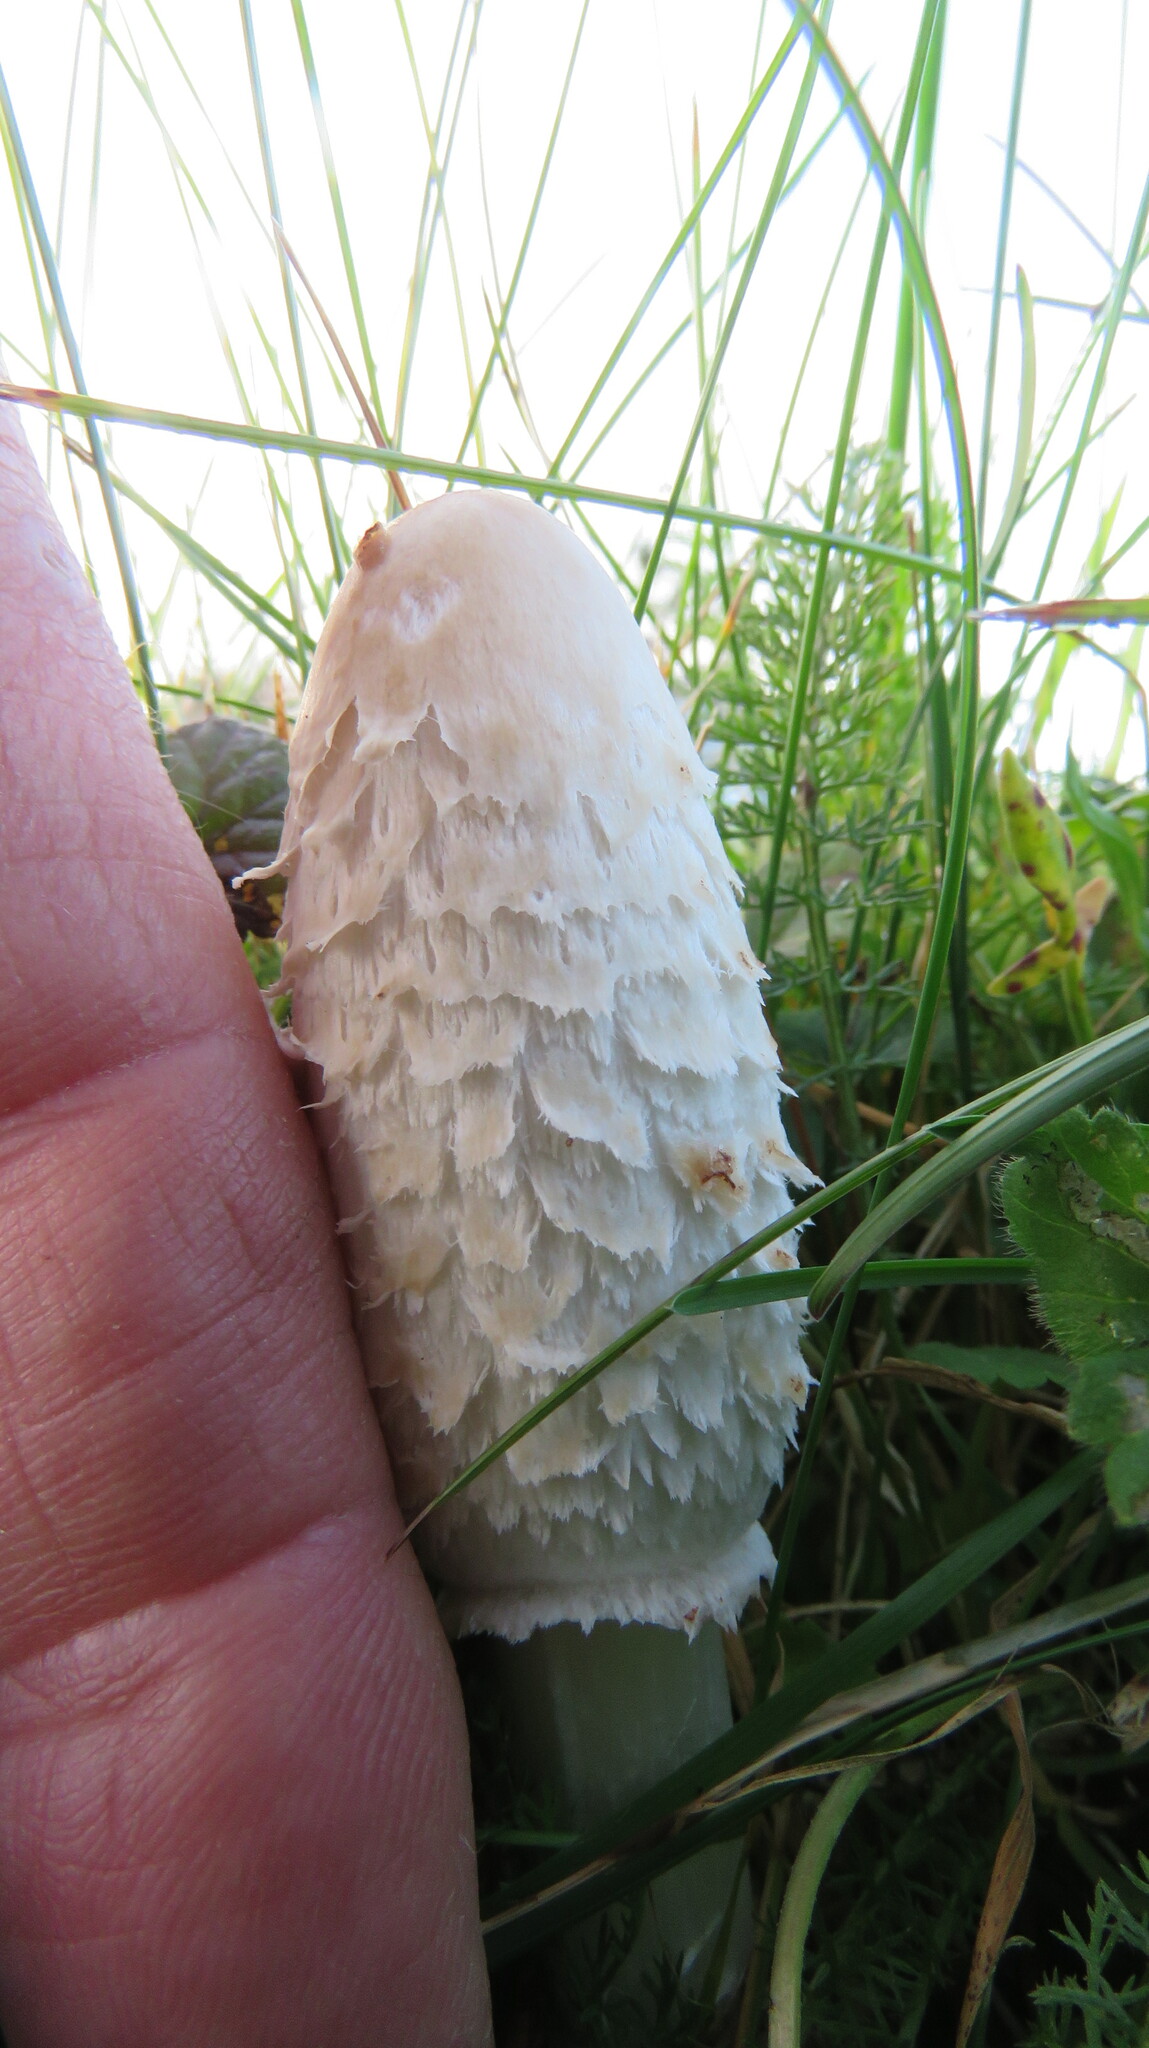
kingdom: Fungi
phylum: Basidiomycota
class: Agaricomycetes
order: Agaricales
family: Agaricaceae
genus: Coprinus
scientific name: Coprinus comatus
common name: Lawyer's wig
